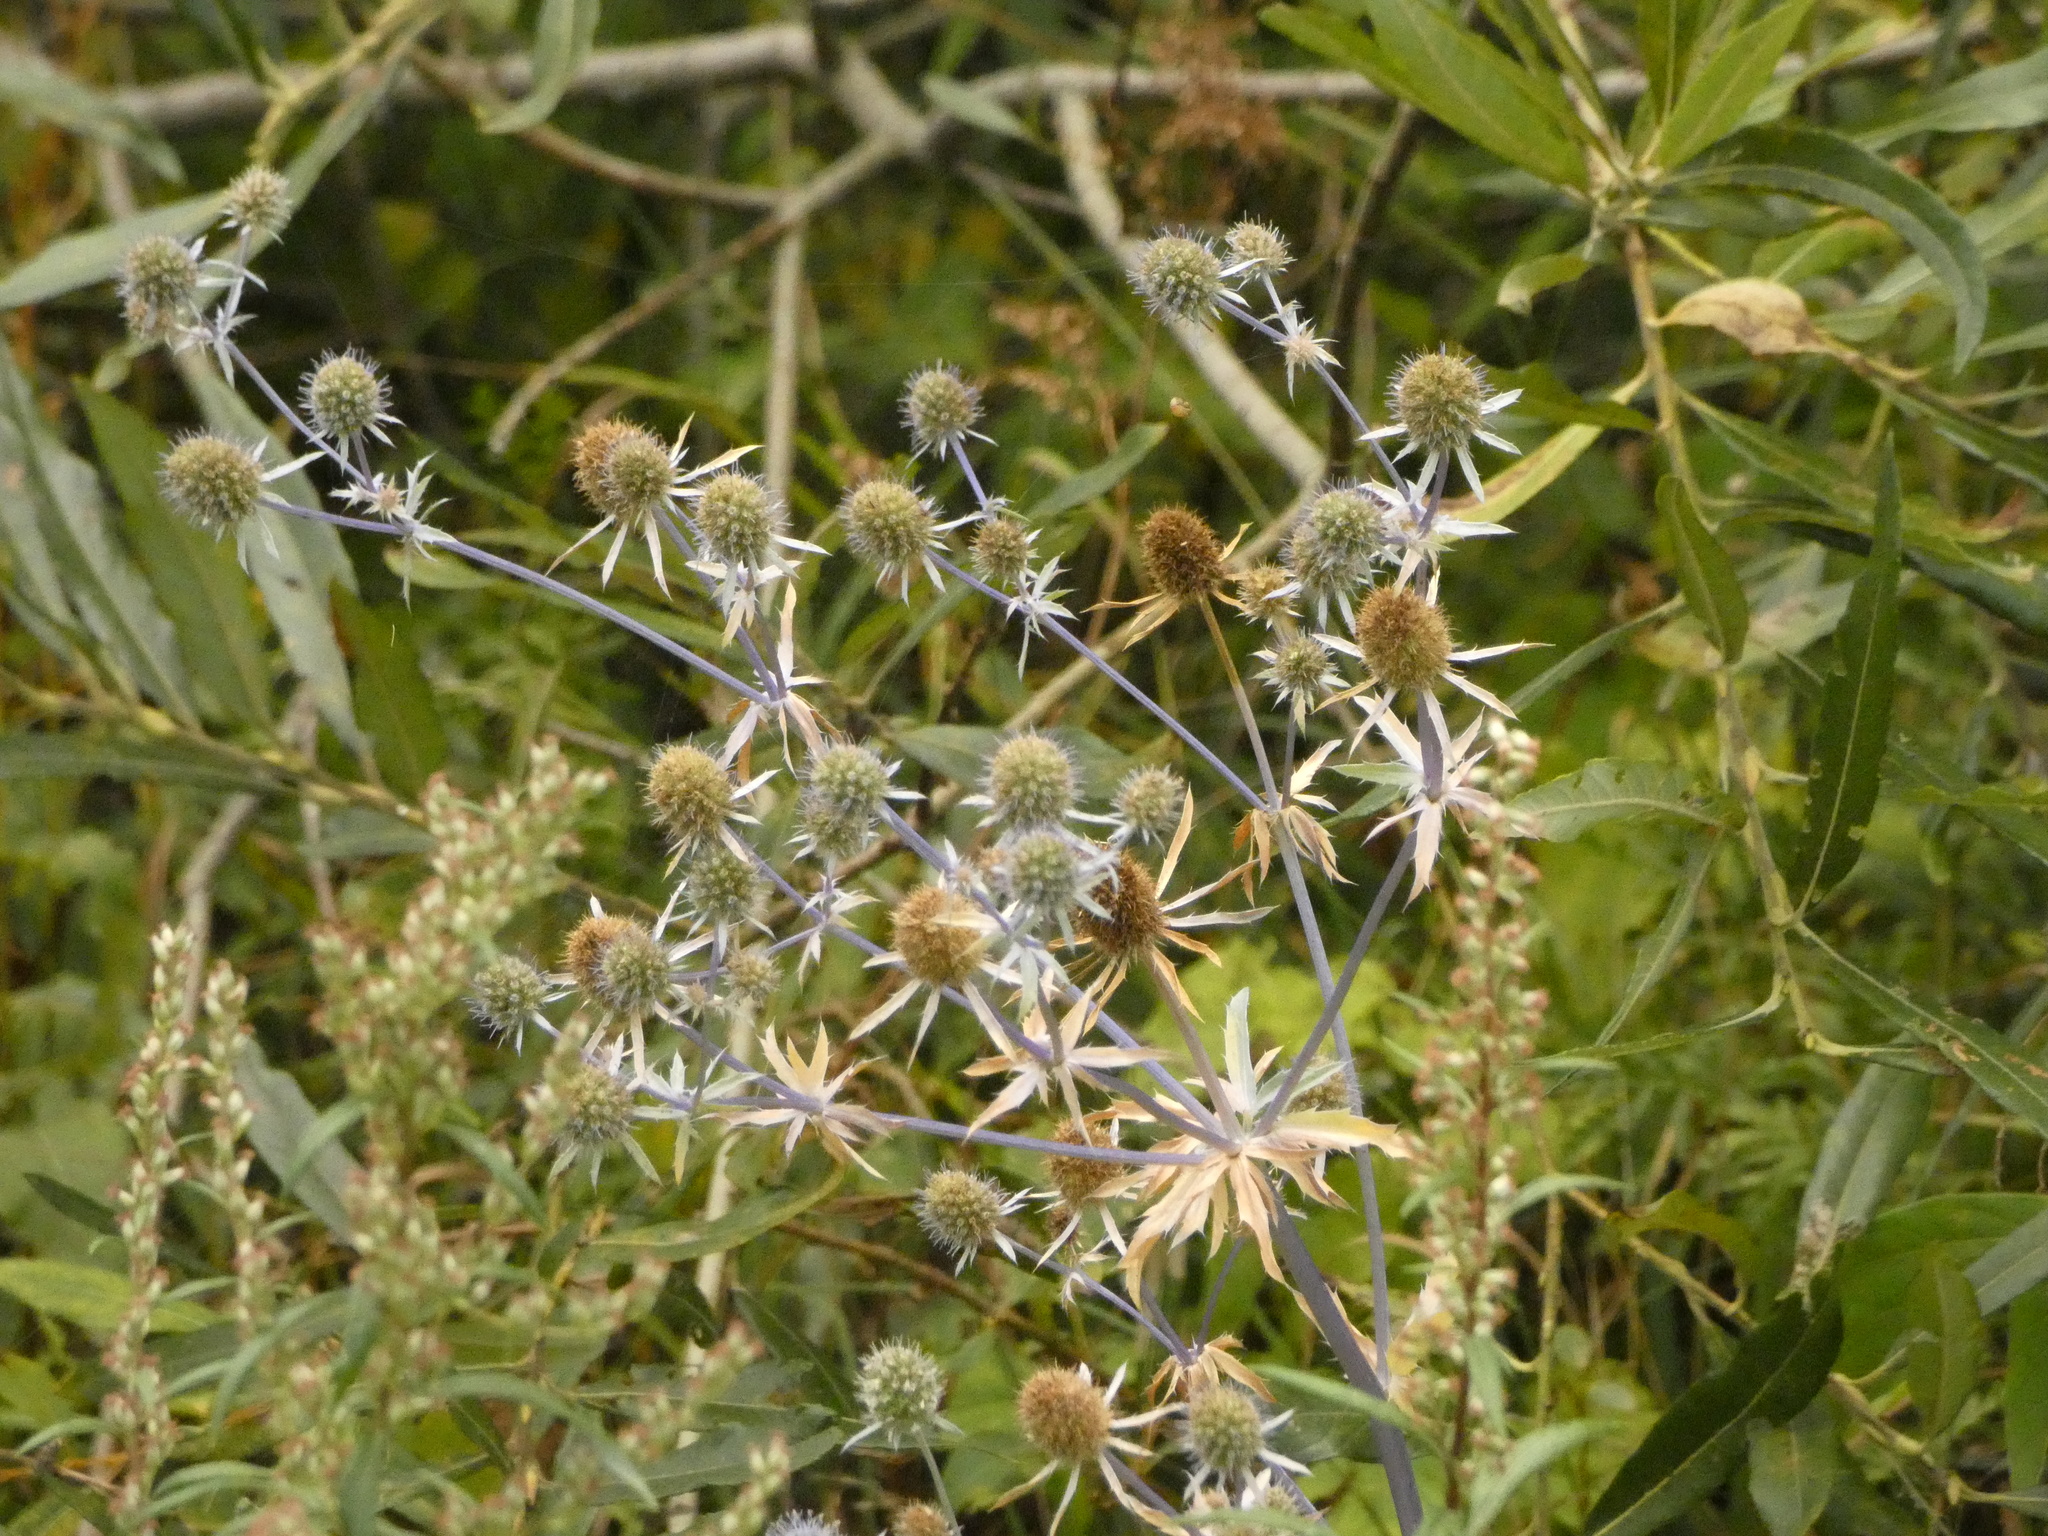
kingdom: Plantae
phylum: Tracheophyta
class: Magnoliopsida
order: Apiales
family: Apiaceae
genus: Eryngium
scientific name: Eryngium planum
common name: Blue eryngo
